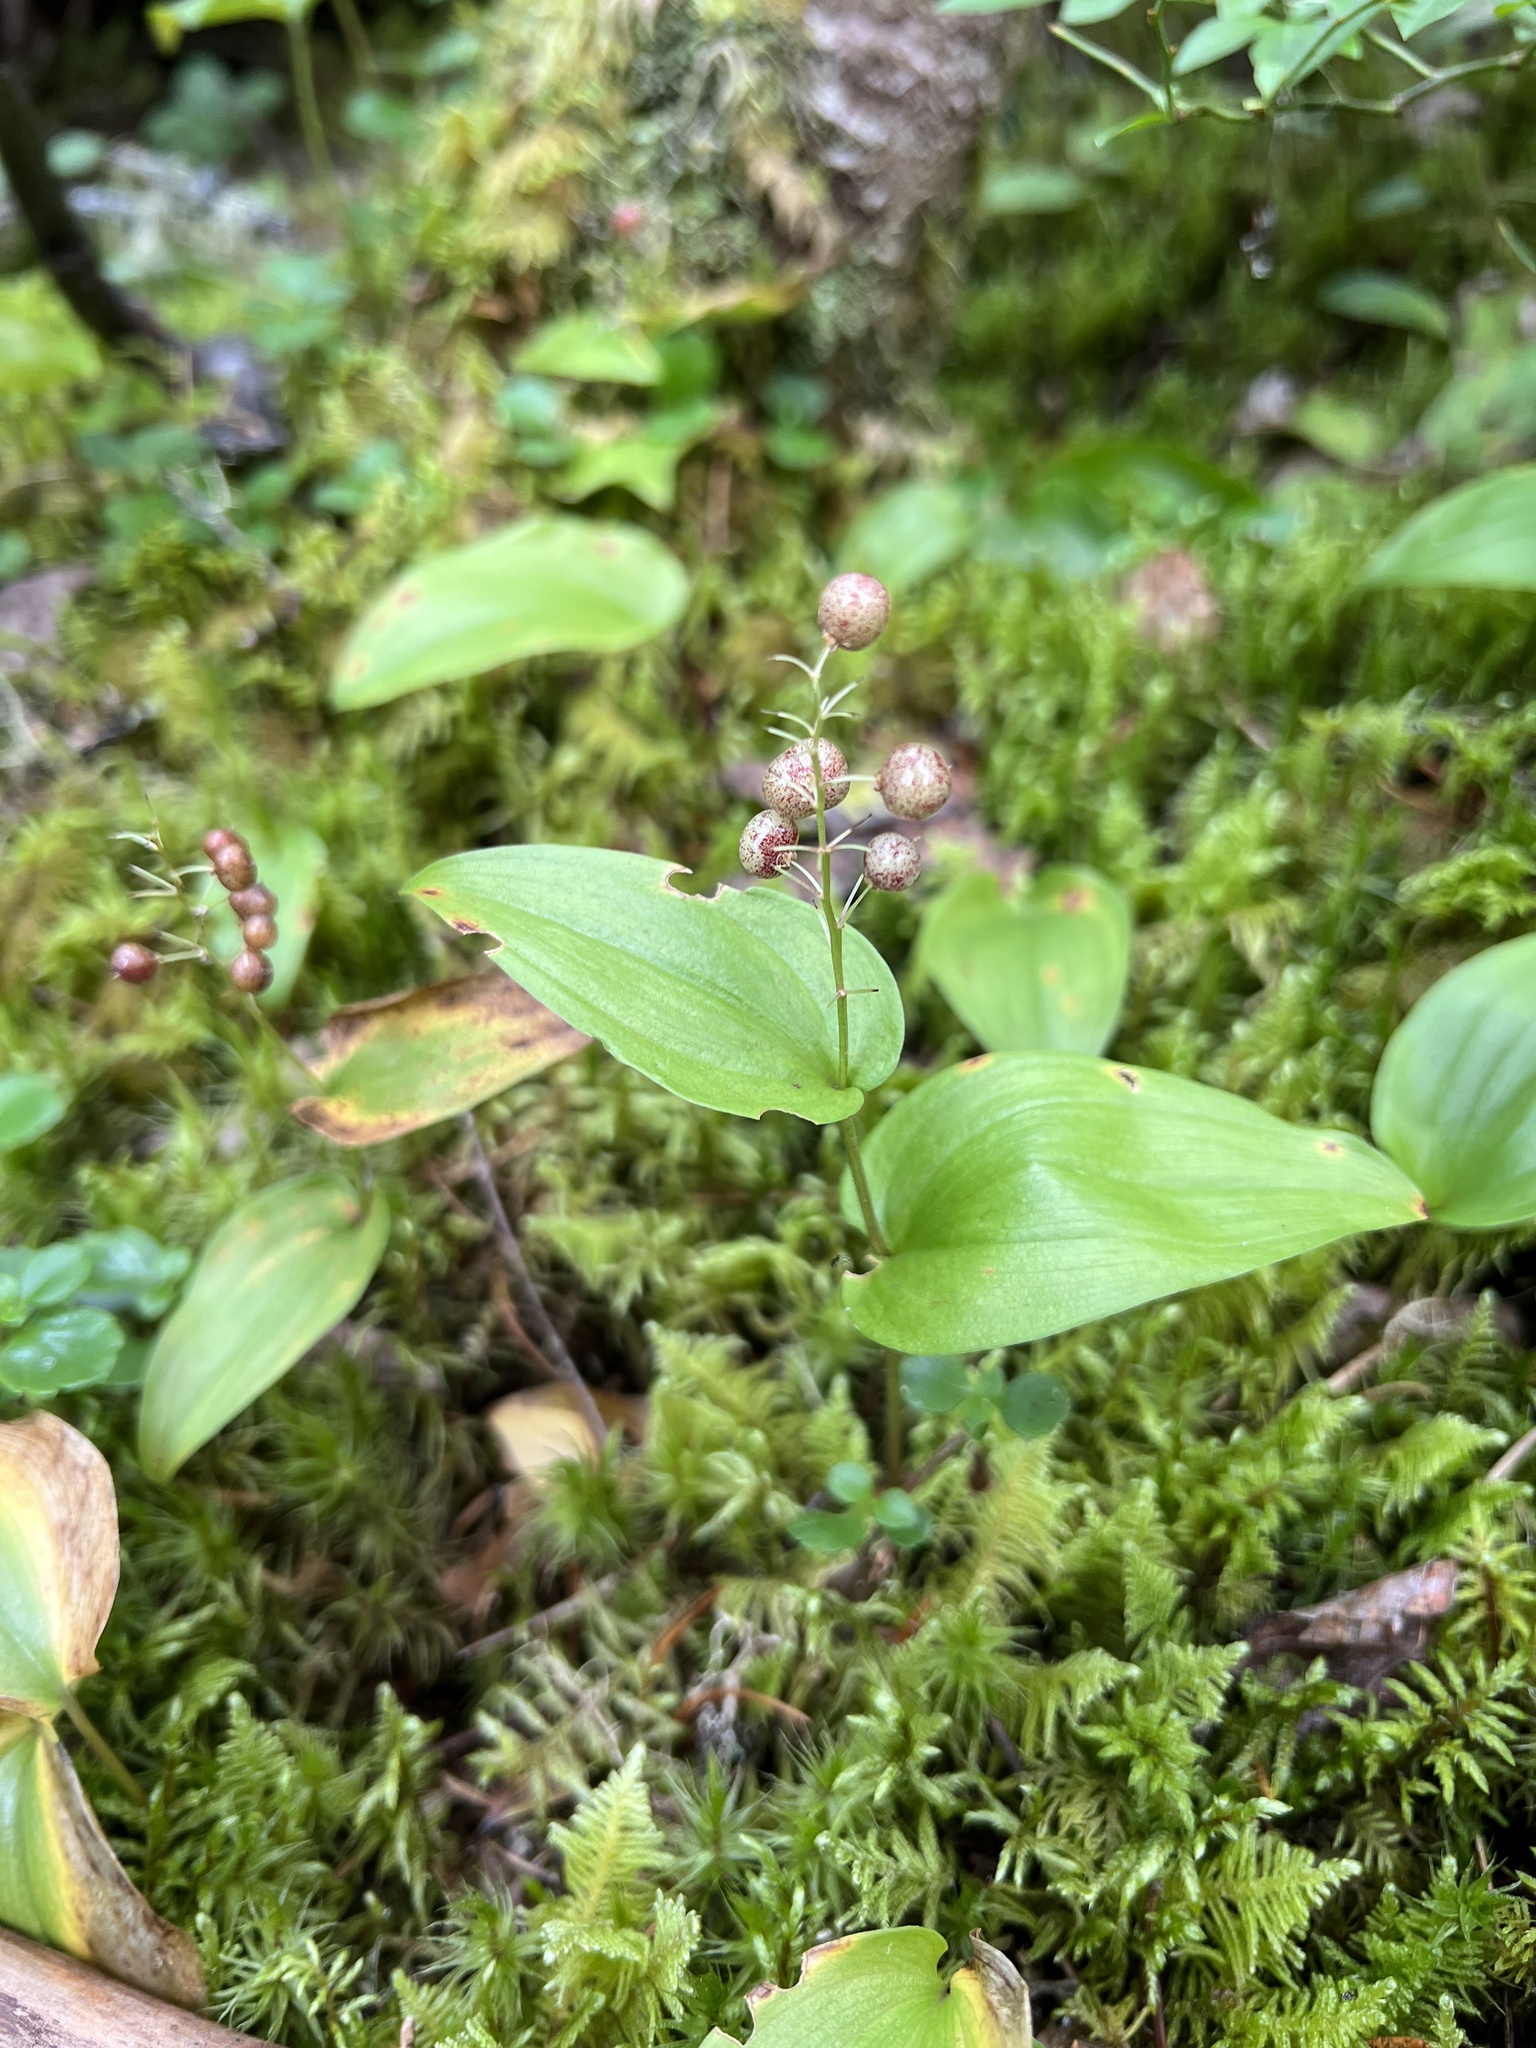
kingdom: Plantae
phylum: Tracheophyta
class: Liliopsida
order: Asparagales
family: Asparagaceae
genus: Maianthemum
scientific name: Maianthemum canadense
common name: False lily-of-the-valley
